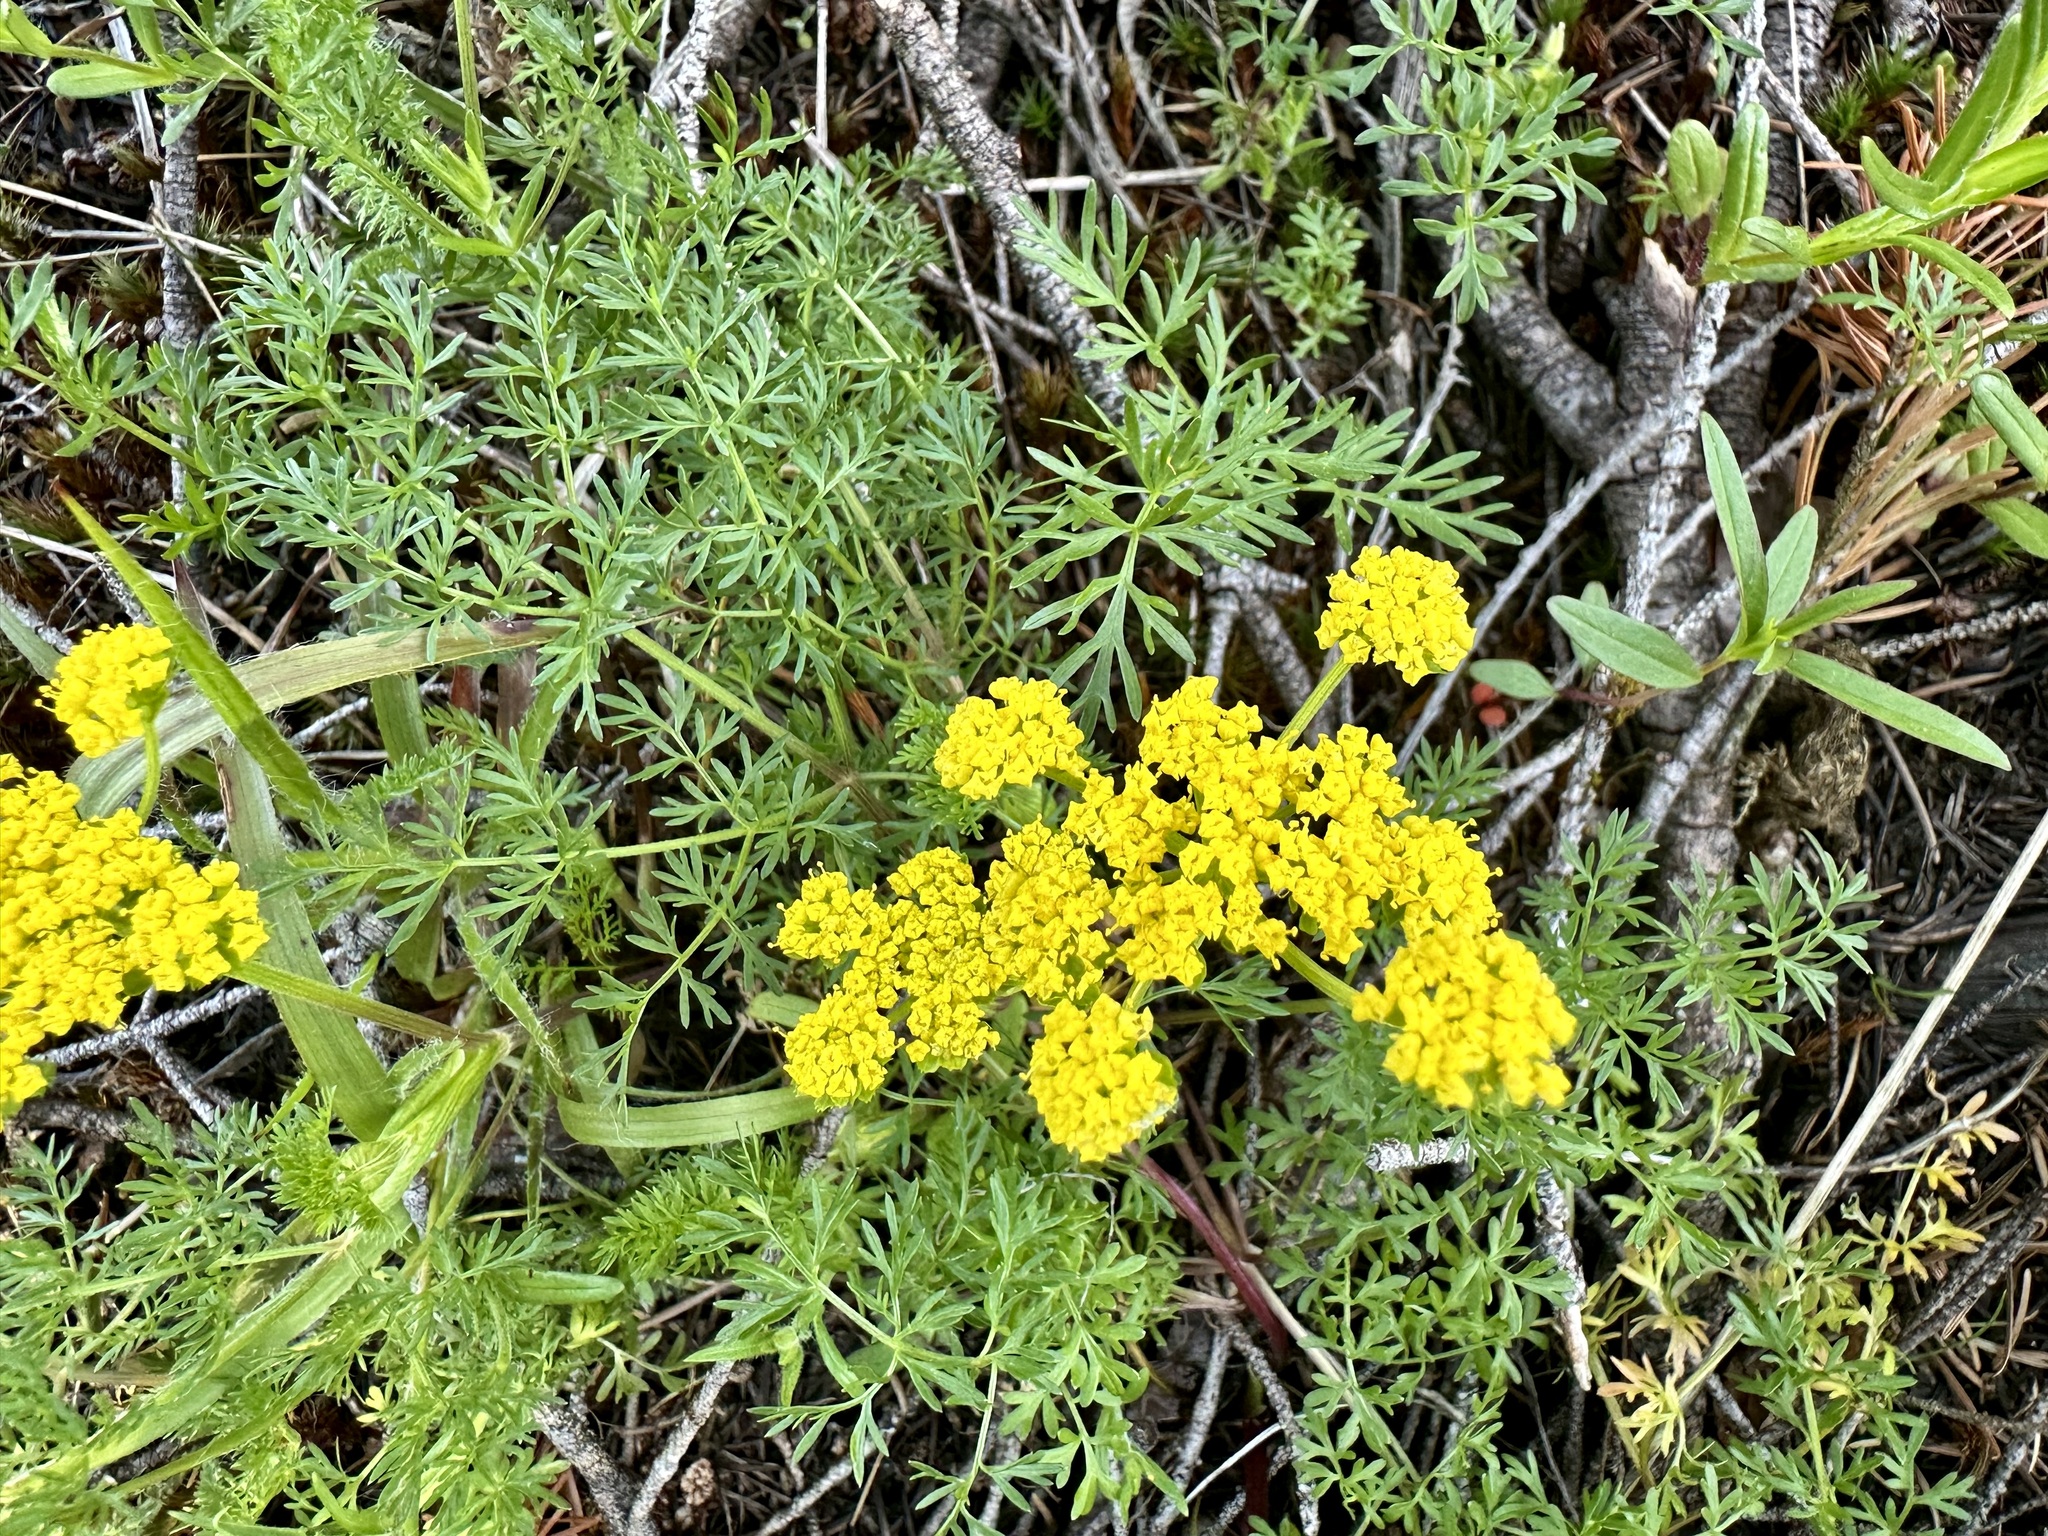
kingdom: Plantae
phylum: Tracheophyta
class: Magnoliopsida
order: Apiales
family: Apiaceae
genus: Lomatium
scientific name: Lomatium utriculatum
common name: Fine-leaf desert-parsley
